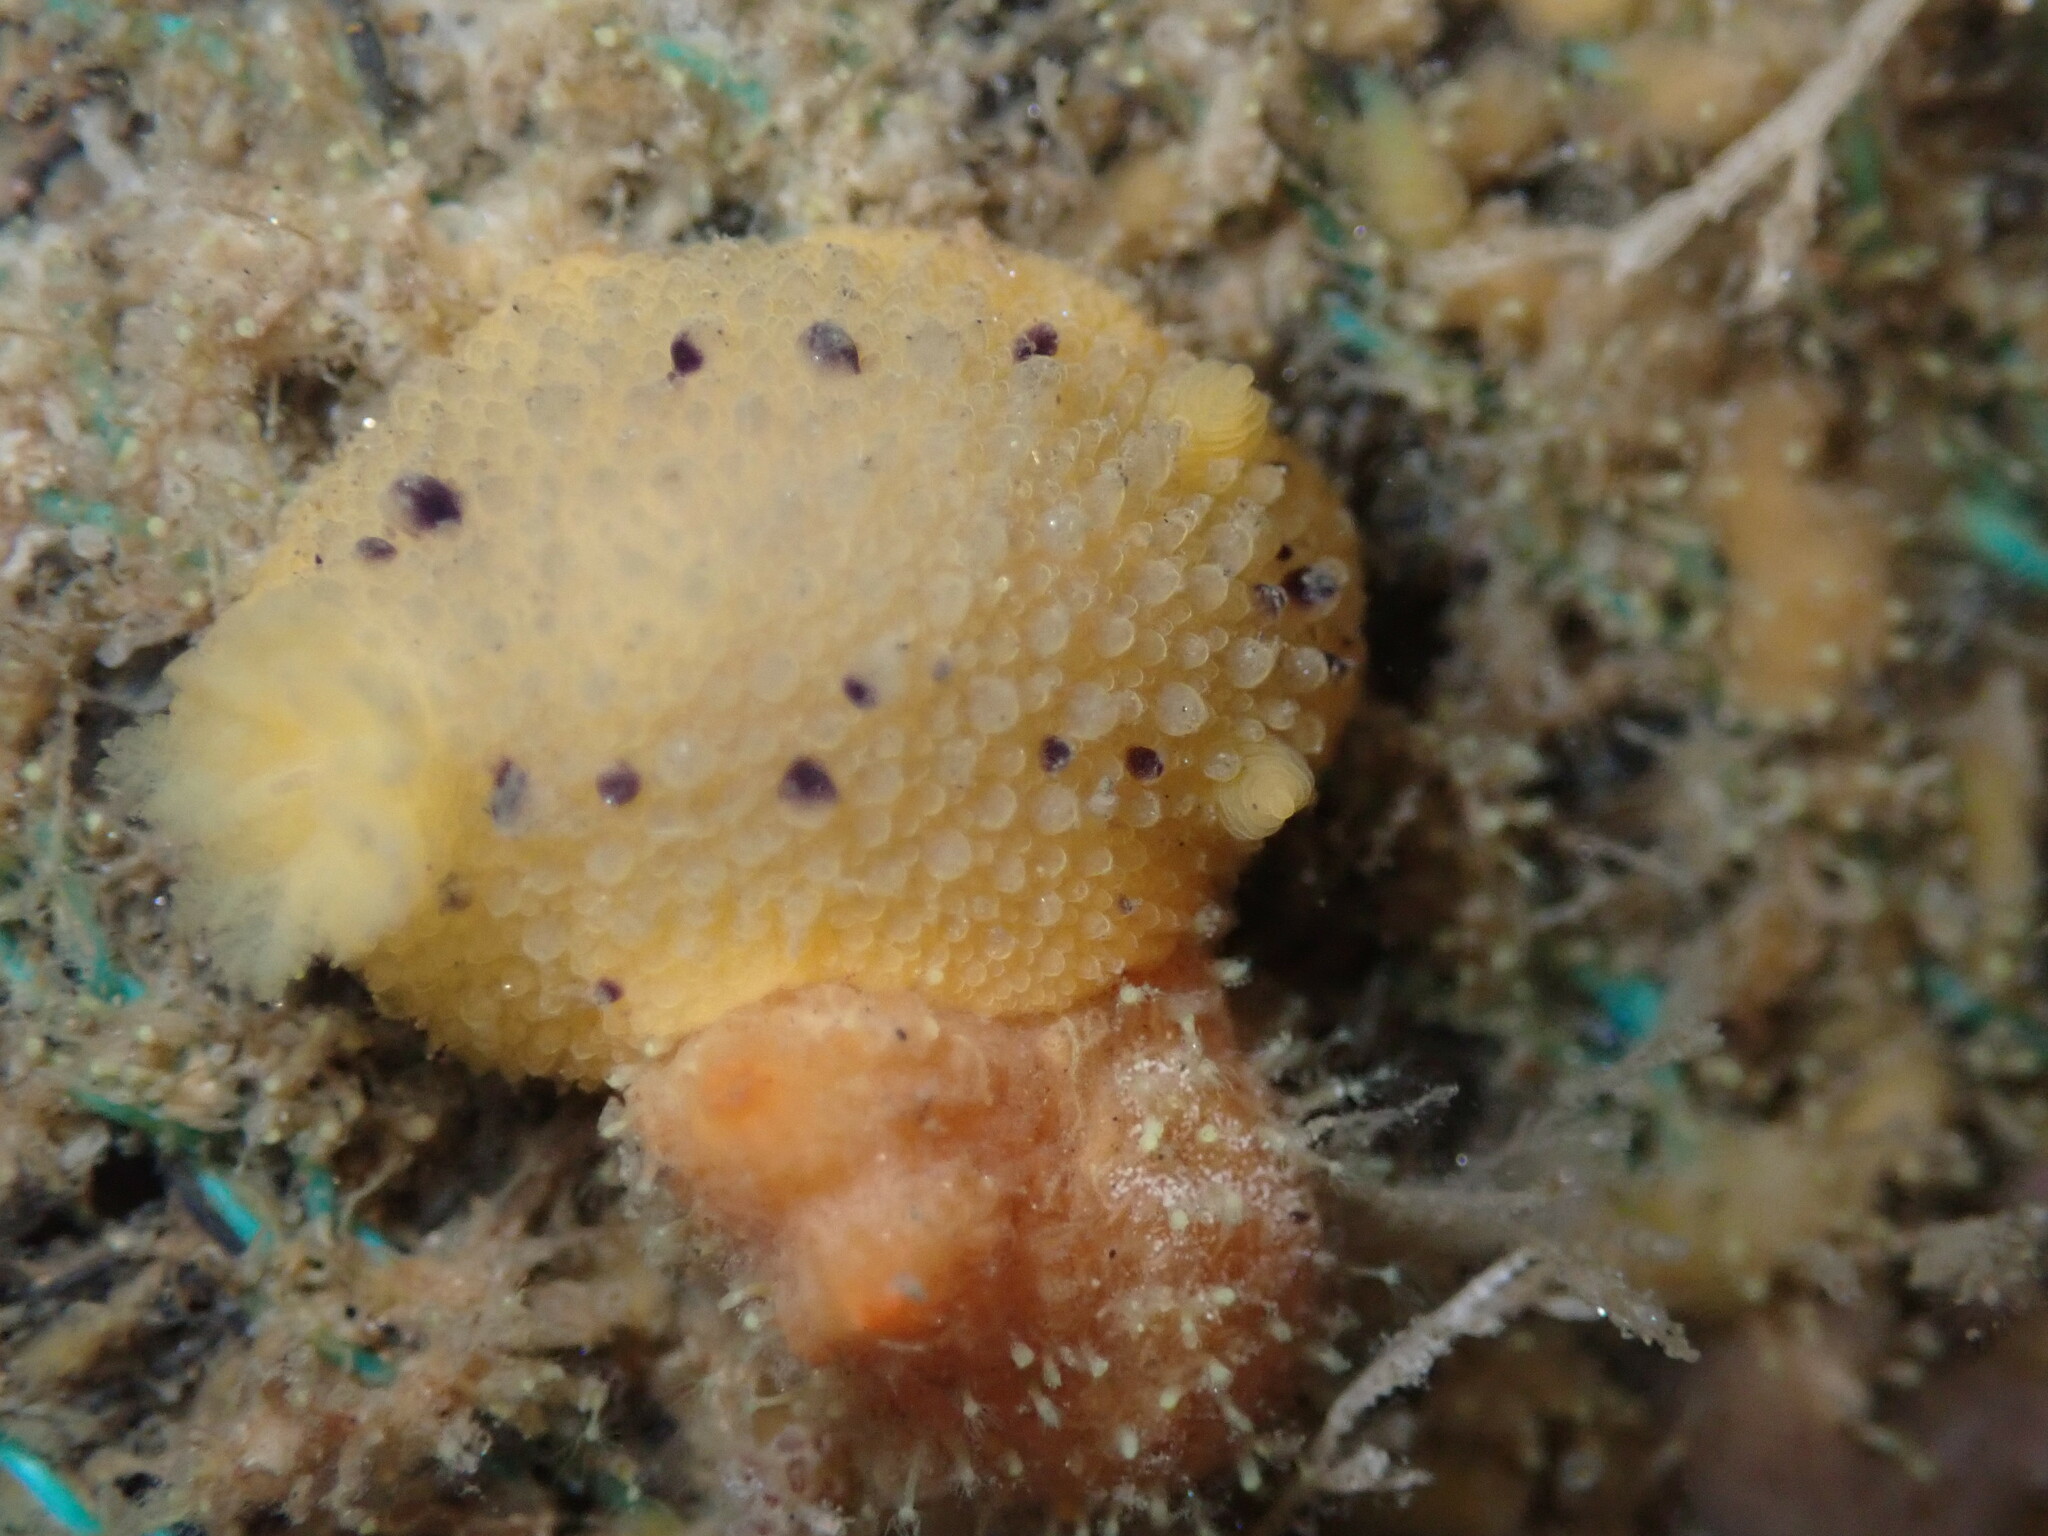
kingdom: Animalia
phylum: Mollusca
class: Gastropoda
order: Nudibranchia
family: Dorididae
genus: Doris
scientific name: Doris montereyensis
